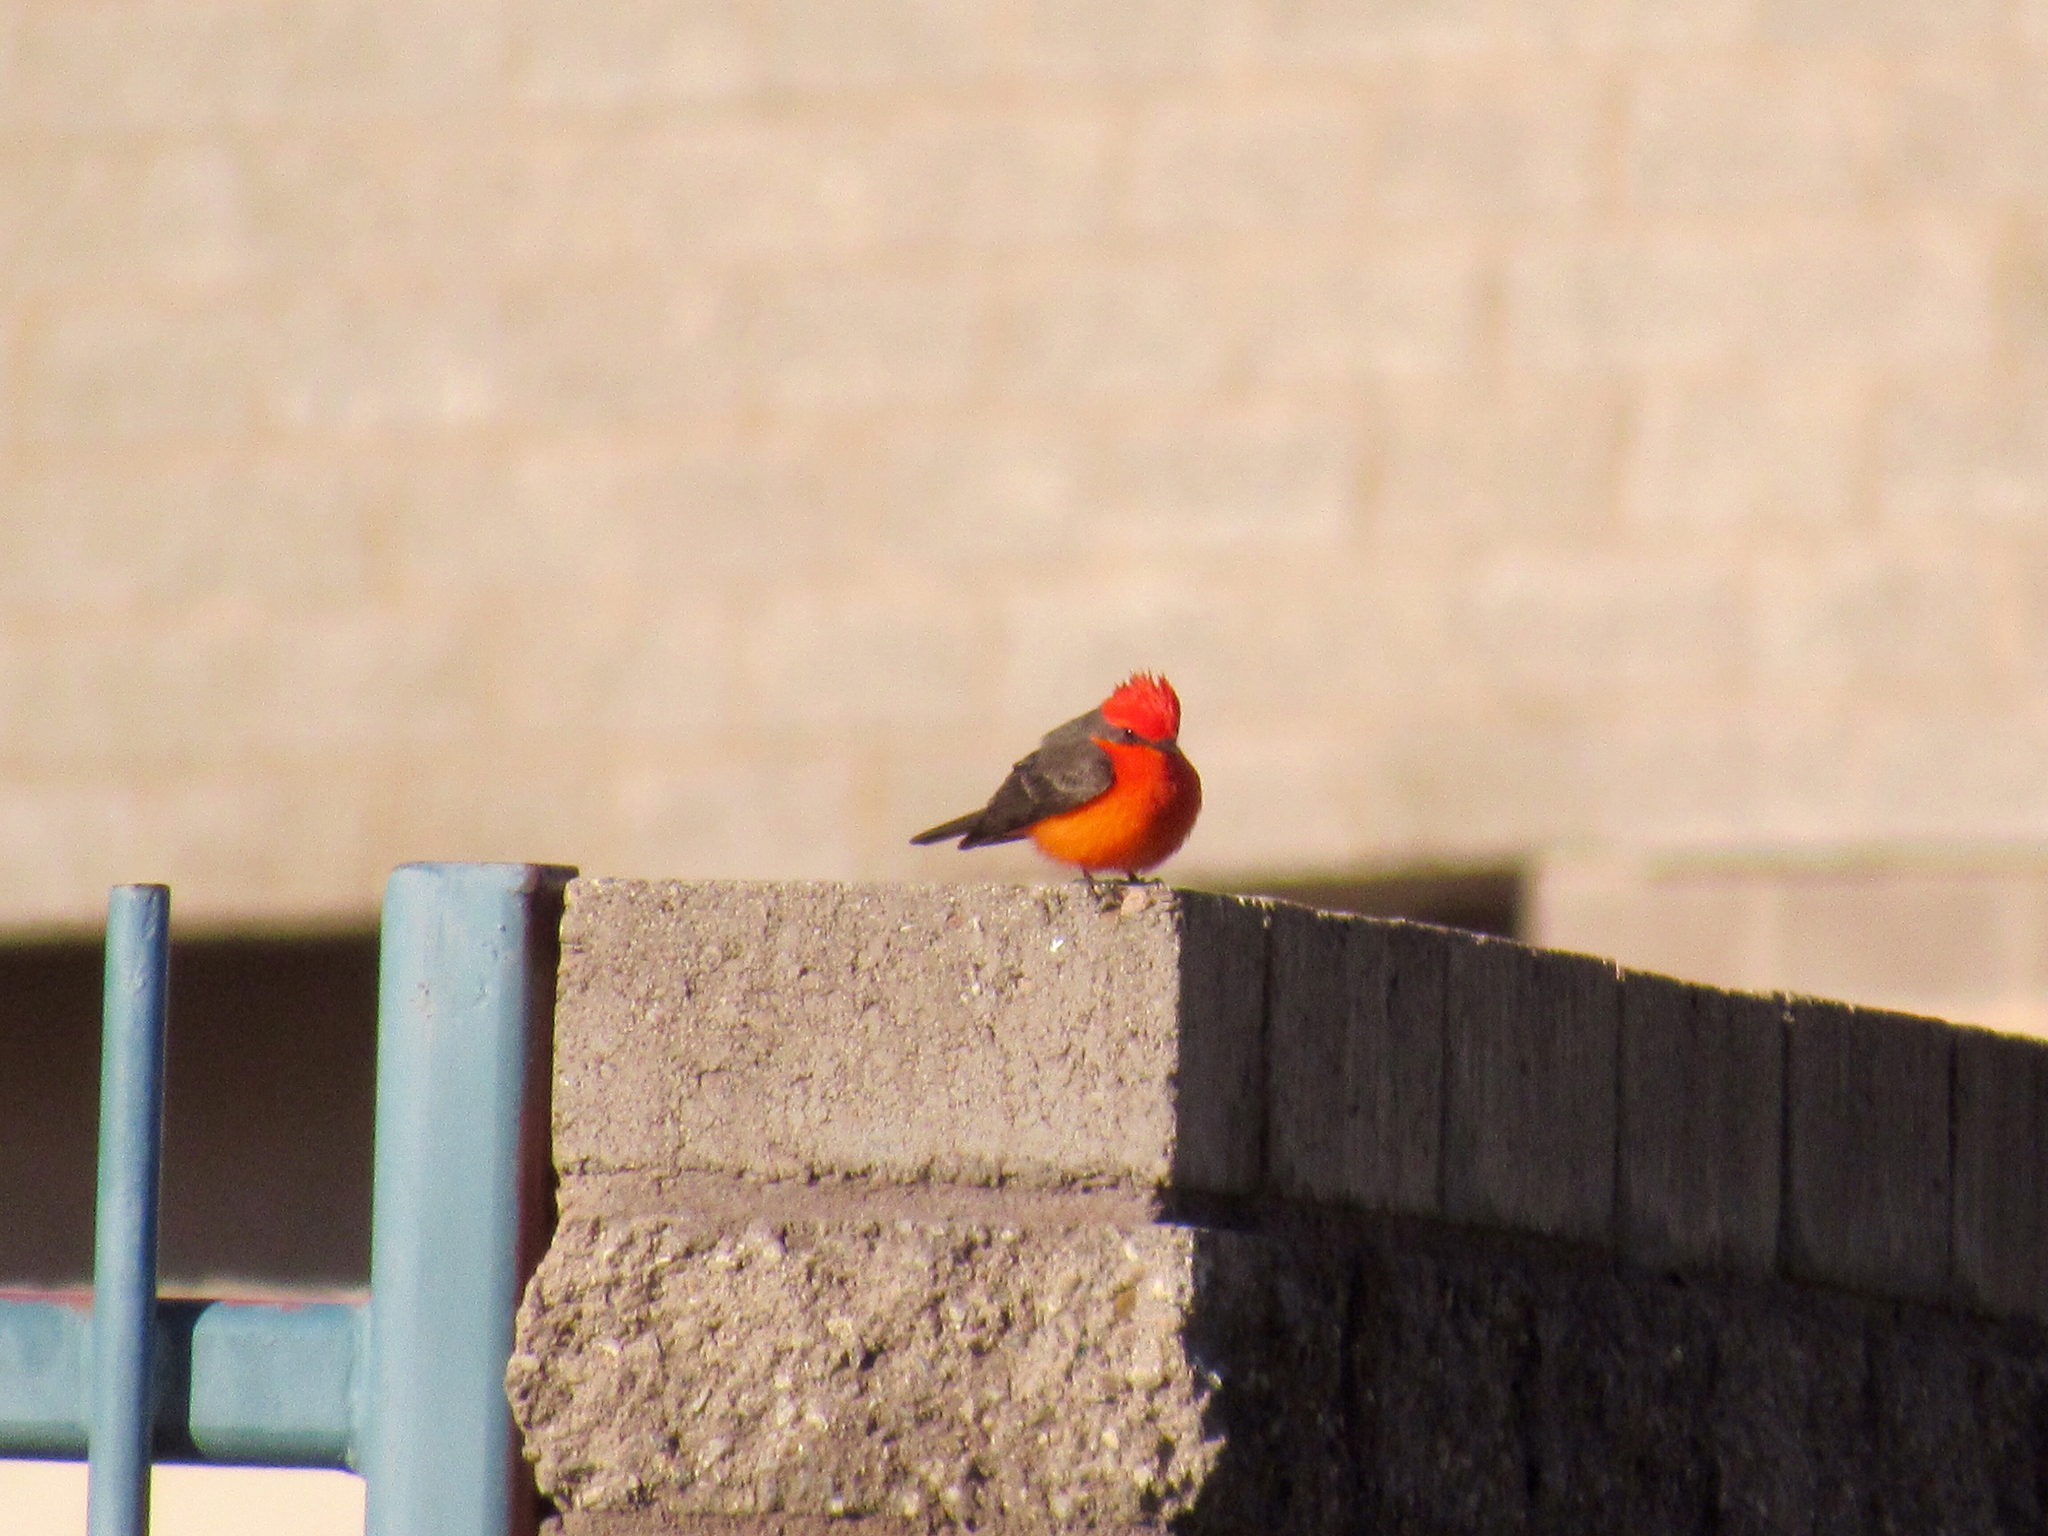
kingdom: Animalia
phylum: Chordata
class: Aves
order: Passeriformes
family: Tyrannidae
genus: Pyrocephalus
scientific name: Pyrocephalus rubinus
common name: Vermilion flycatcher
